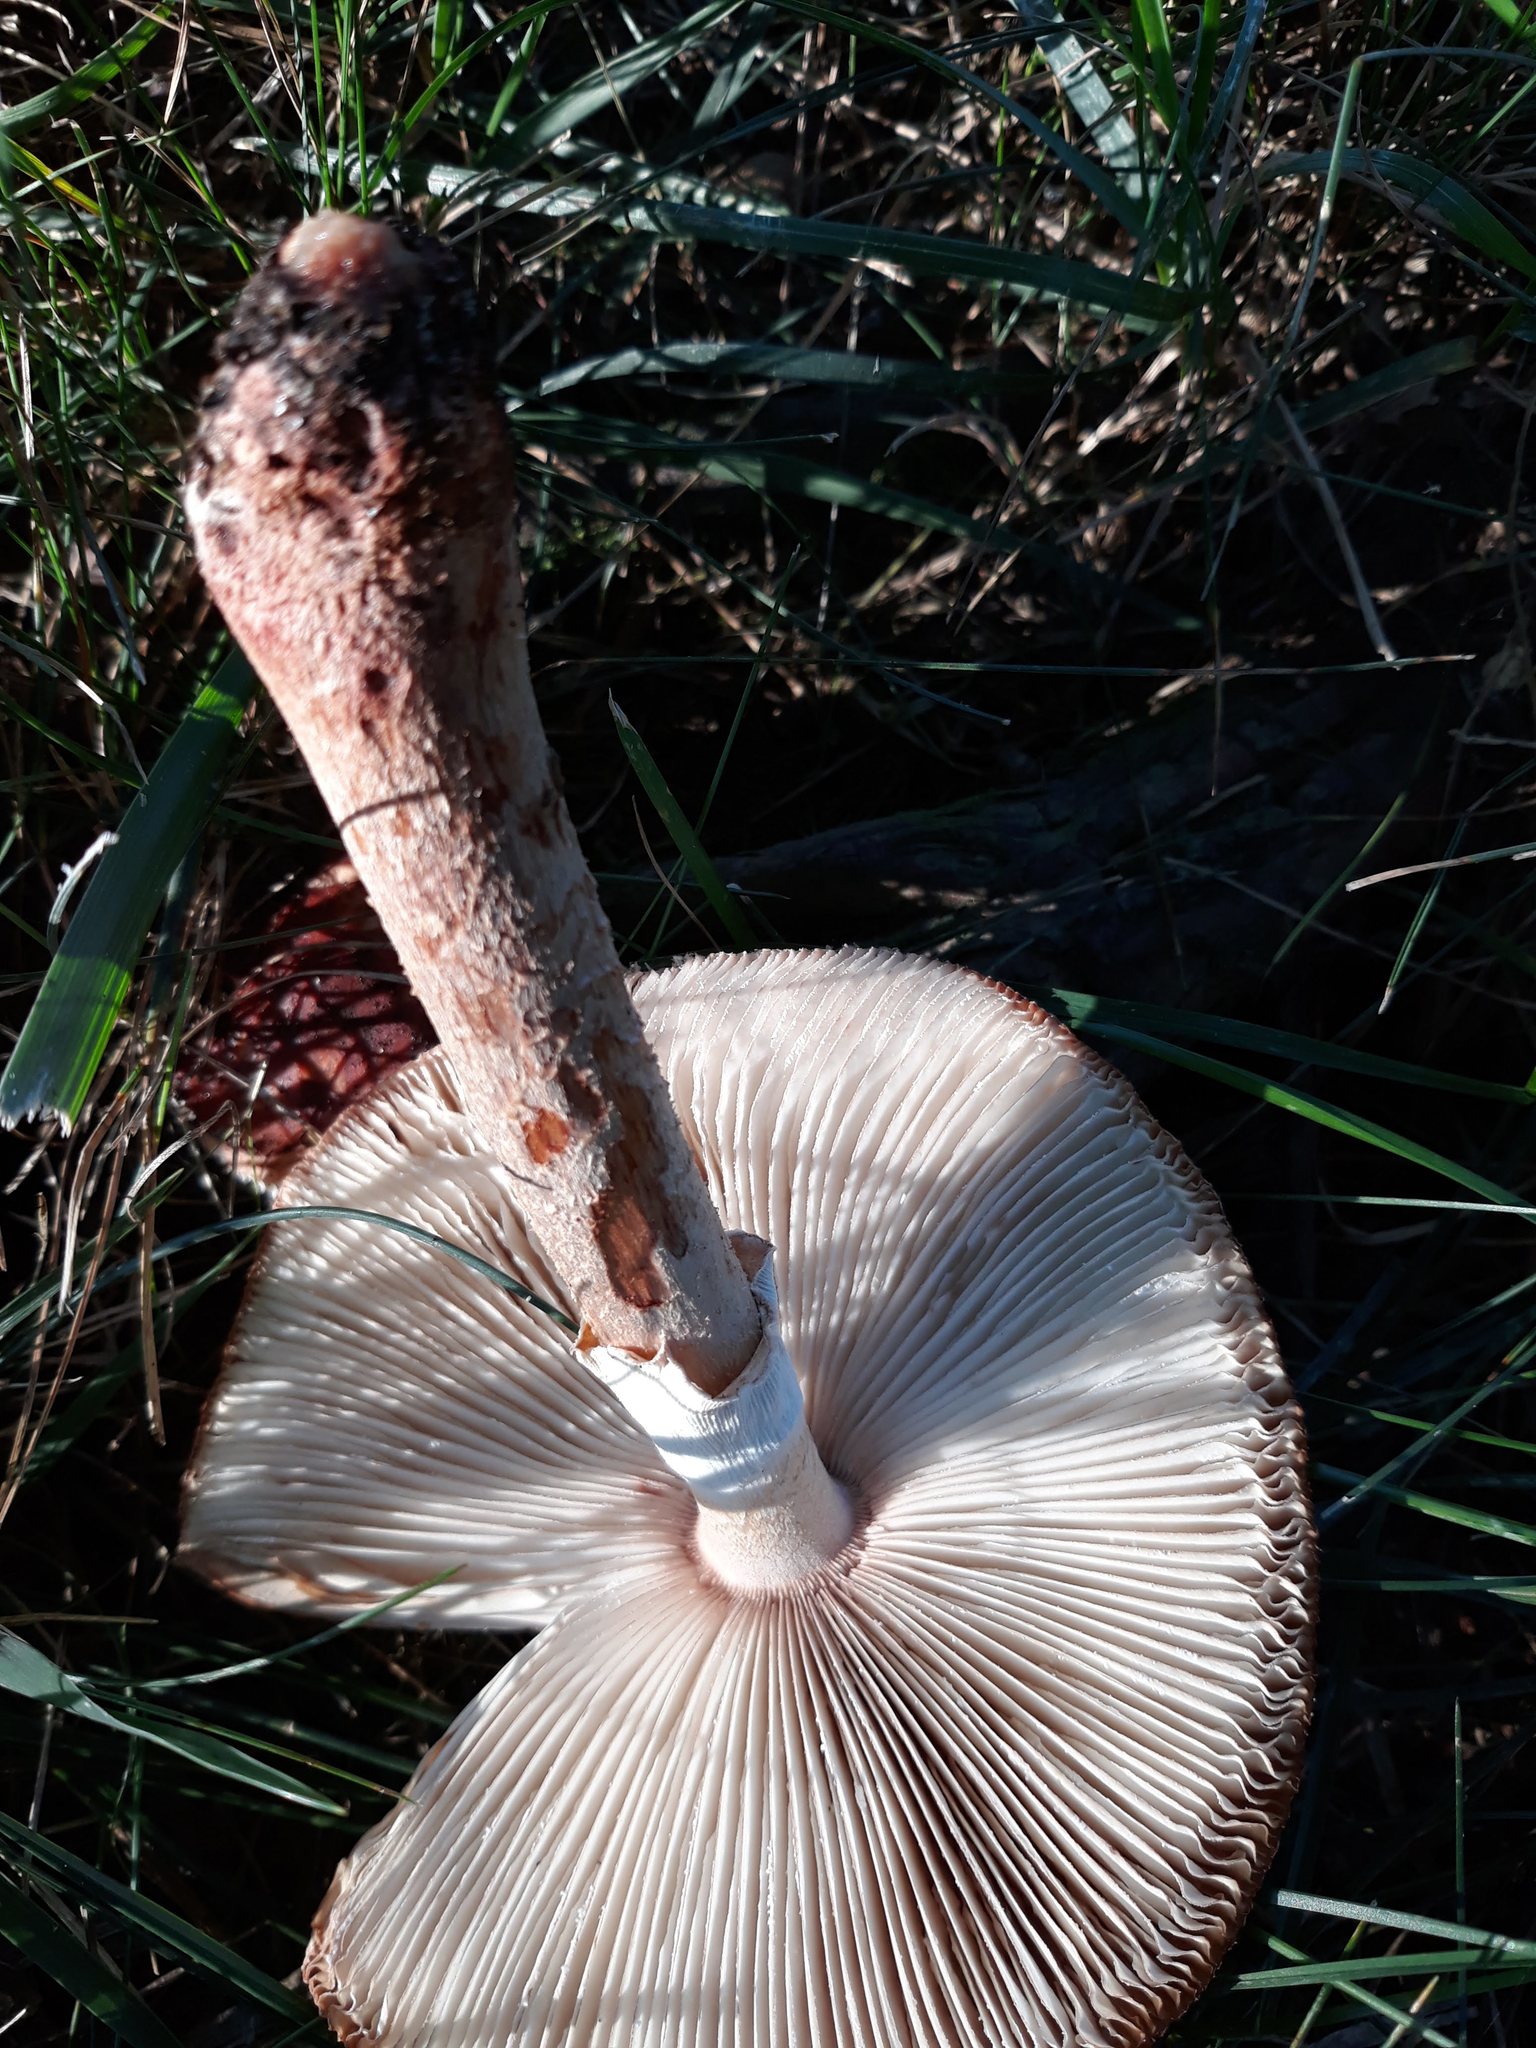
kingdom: Fungi
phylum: Basidiomycota
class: Agaricomycetes
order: Agaricales
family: Amanitaceae
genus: Amanita
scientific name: Amanita
